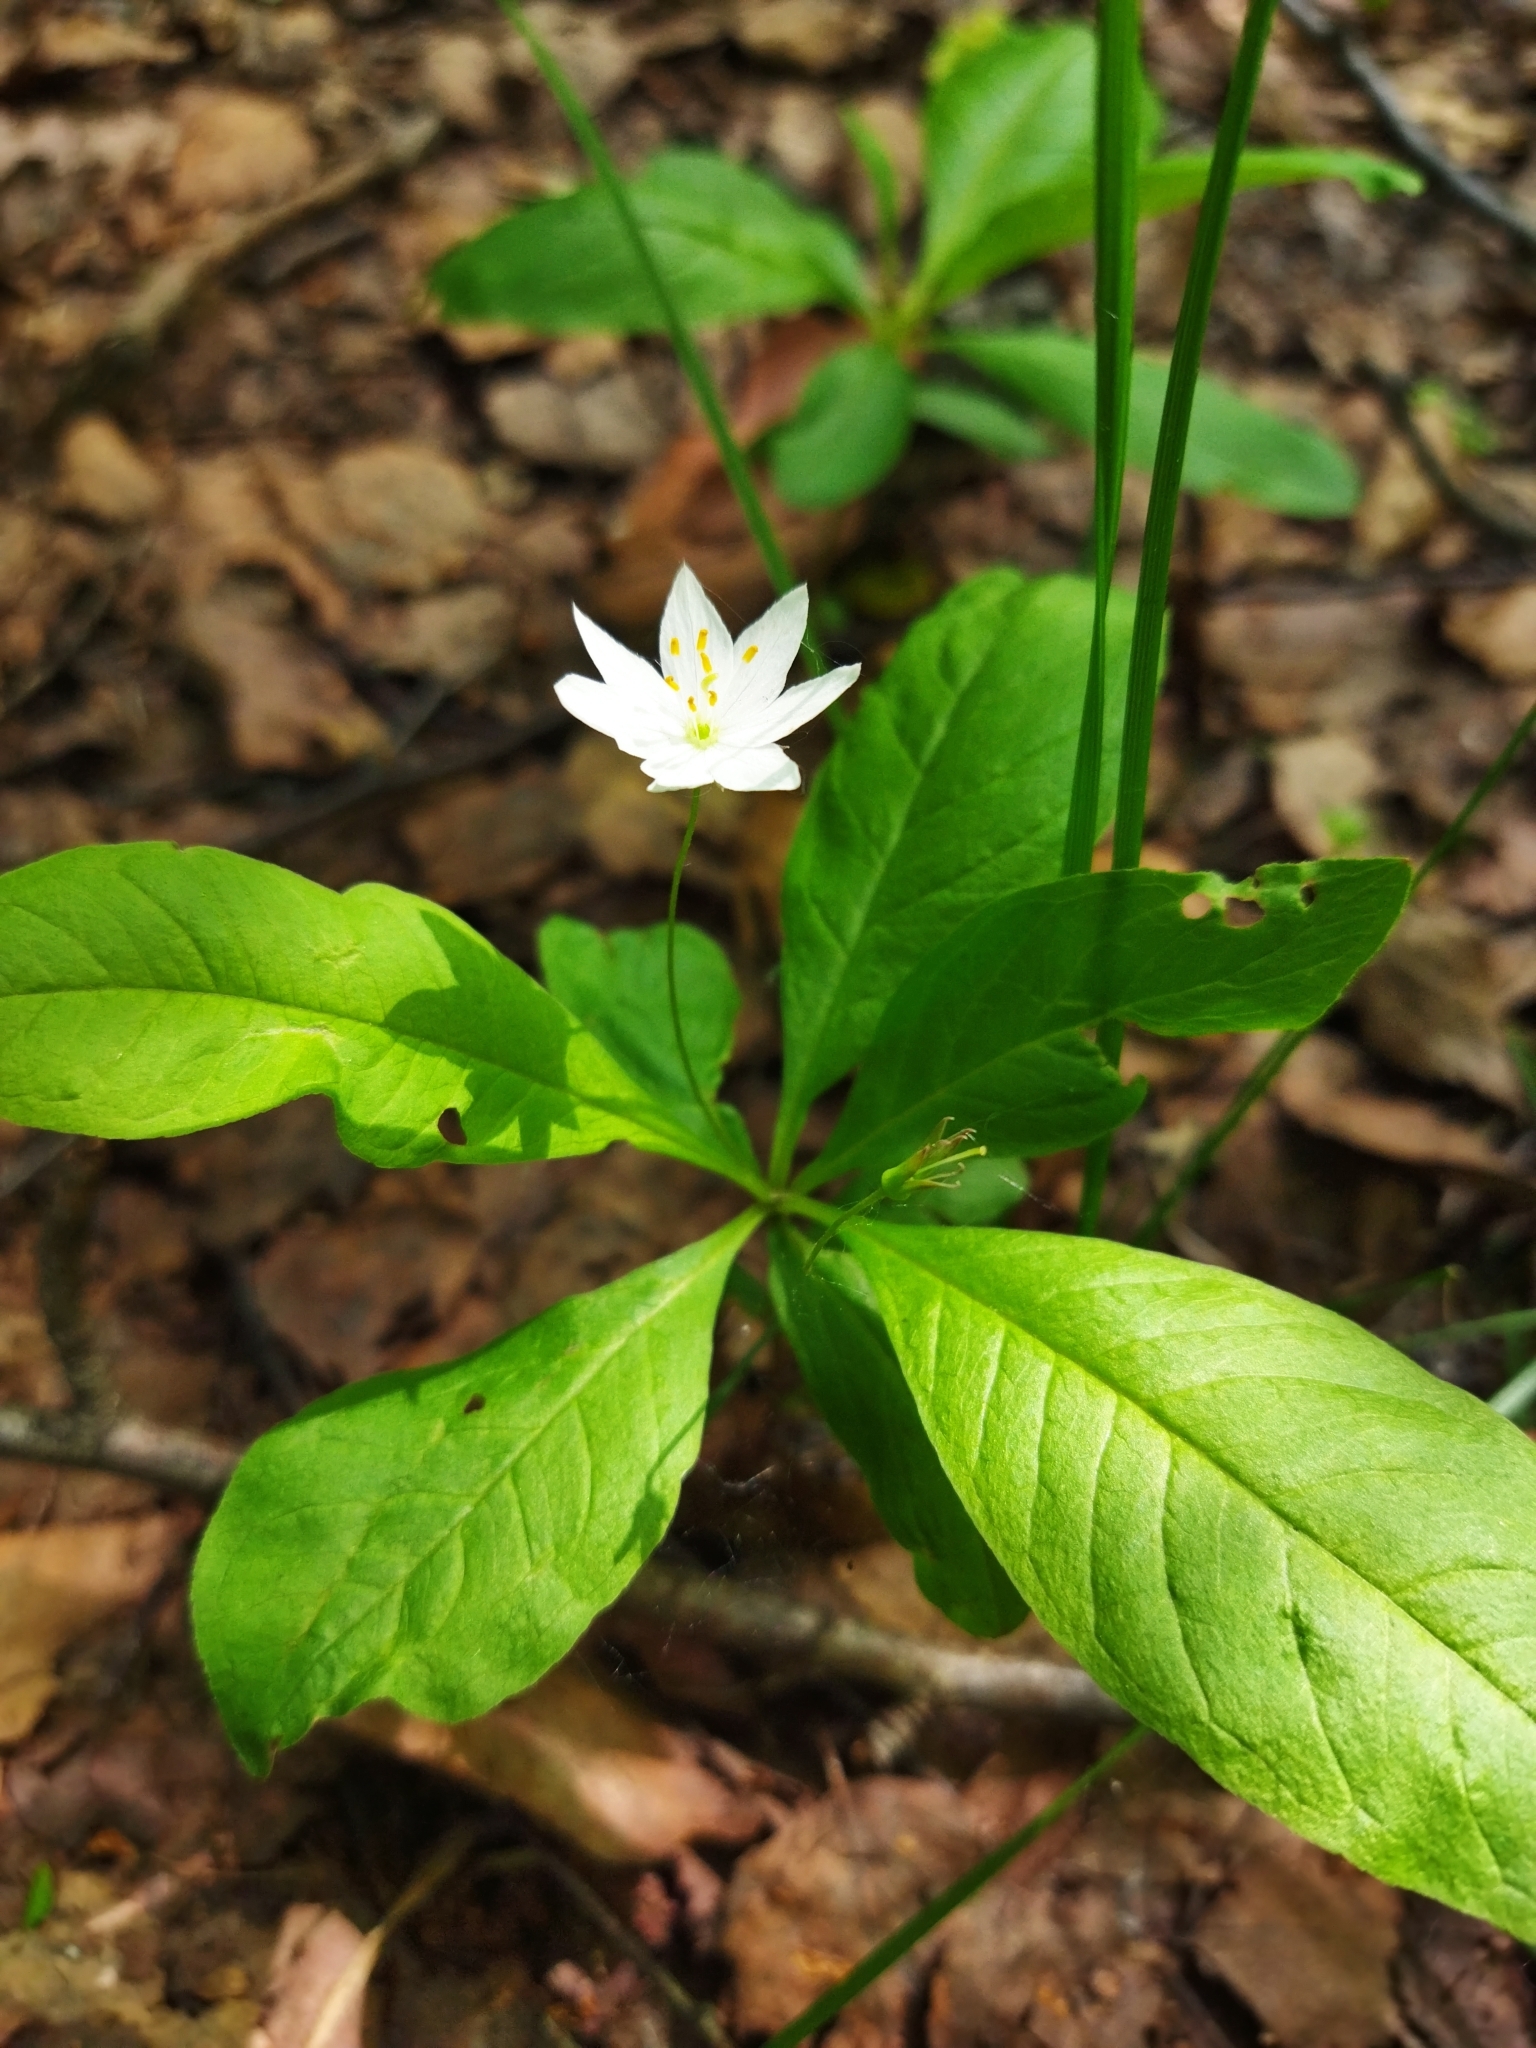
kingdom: Plantae
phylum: Tracheophyta
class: Magnoliopsida
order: Ericales
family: Primulaceae
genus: Lysimachia
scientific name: Lysimachia europaea
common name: Arctic starflower
